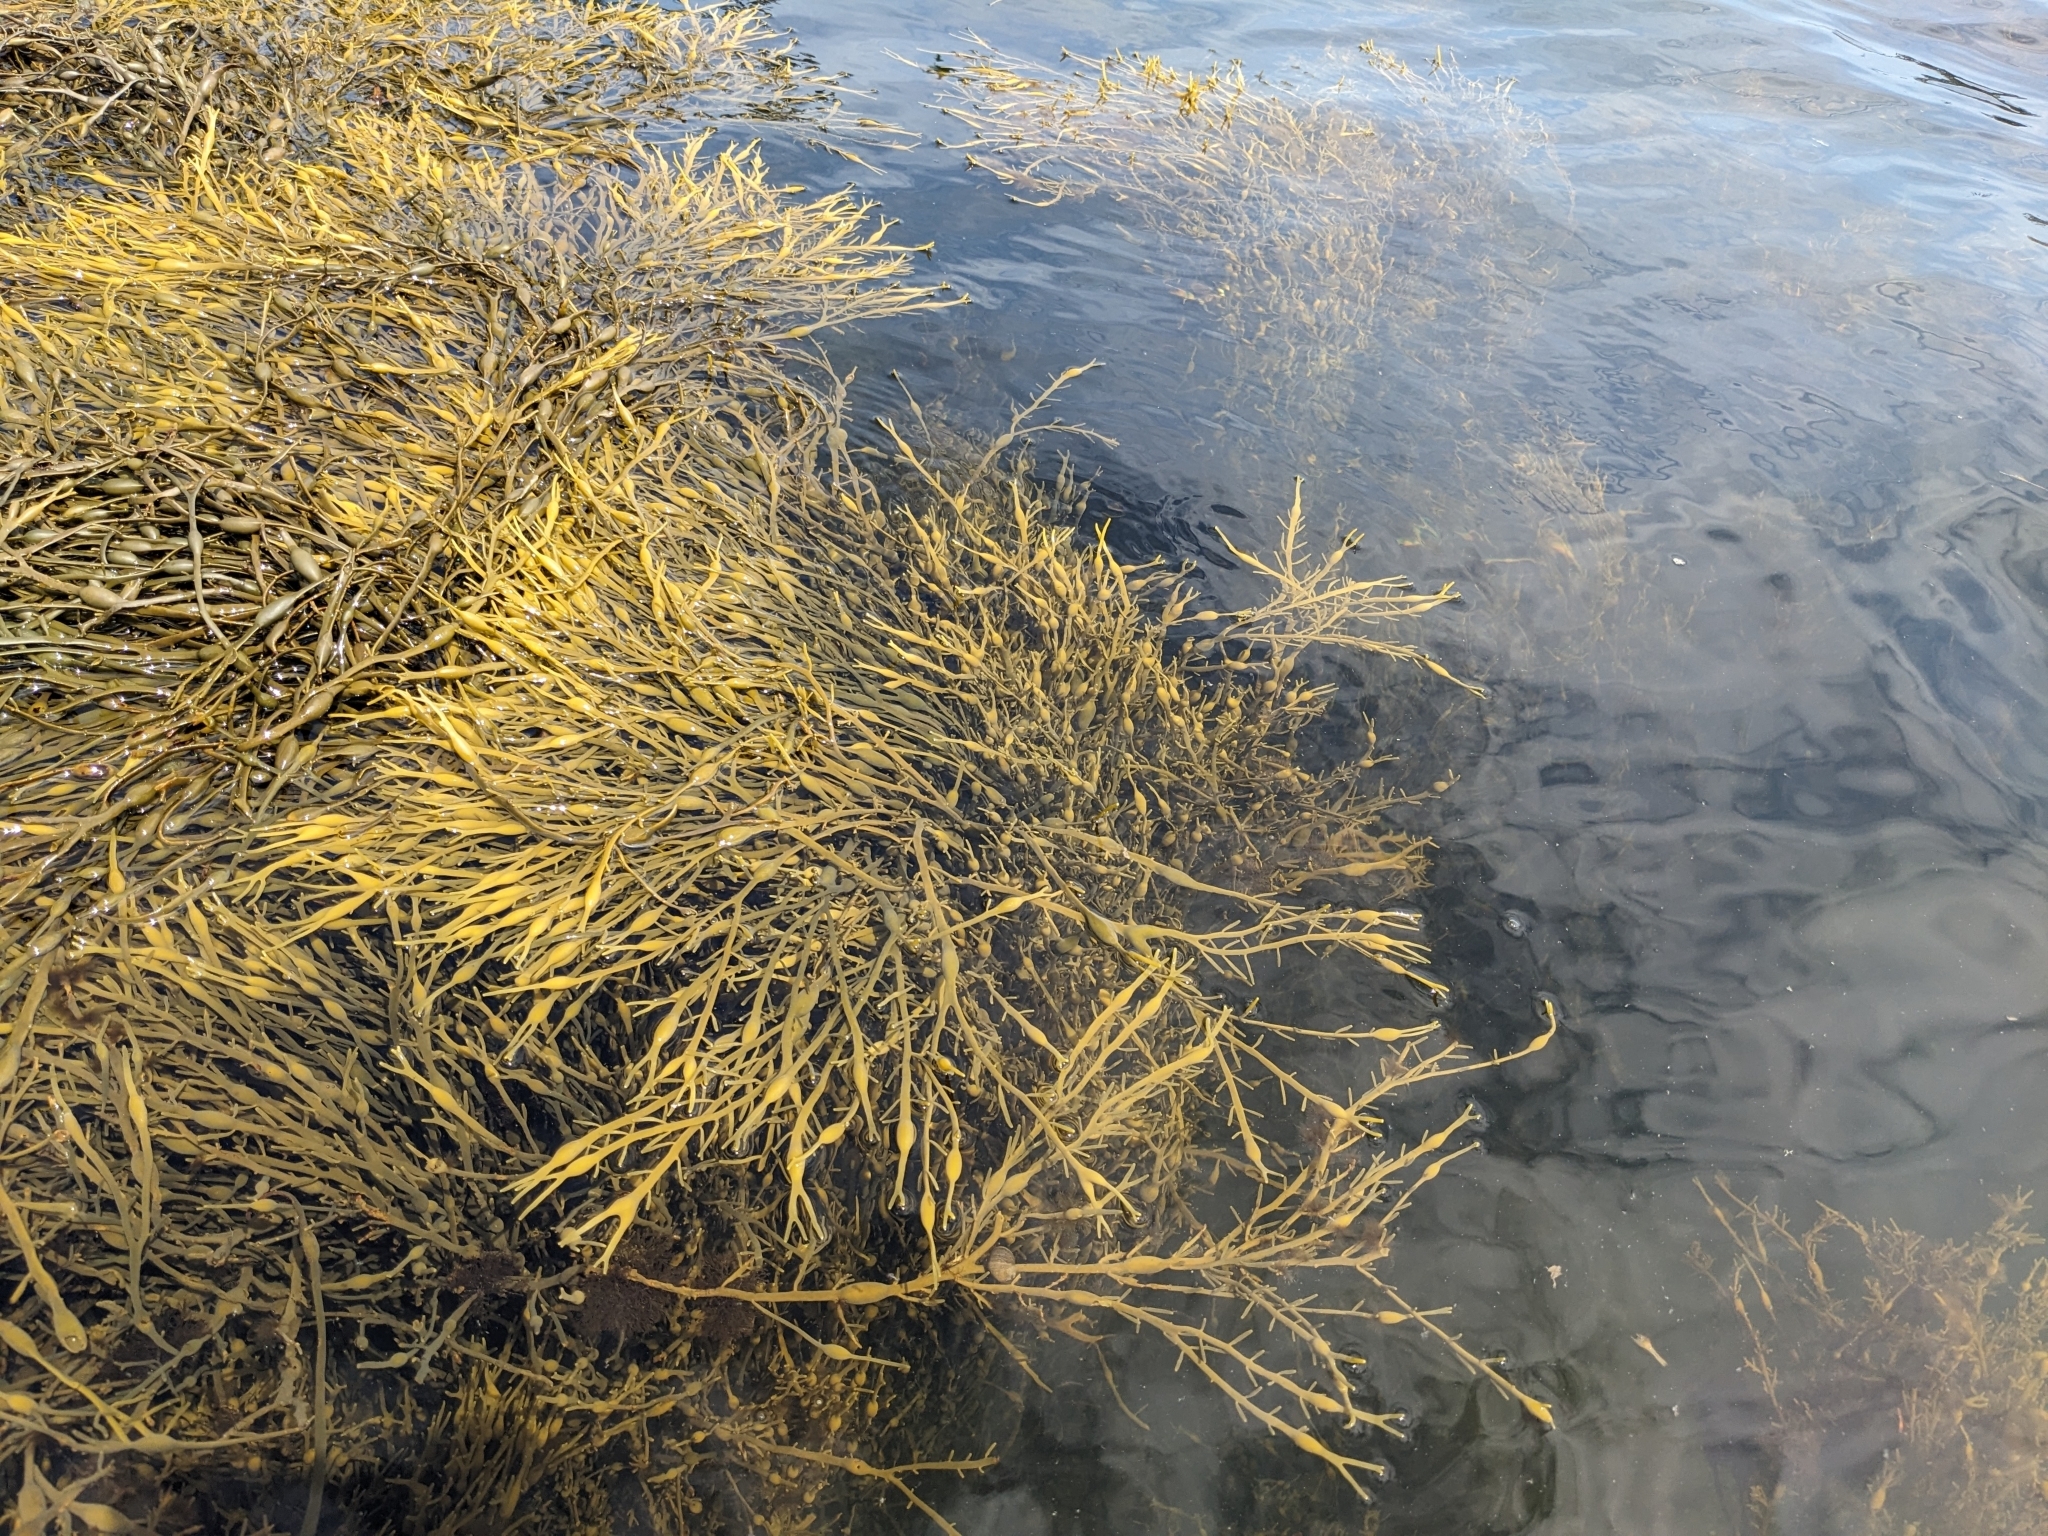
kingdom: Chromista
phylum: Ochrophyta
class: Phaeophyceae
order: Fucales
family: Fucaceae
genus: Ascophyllum
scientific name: Ascophyllum nodosum
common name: Knotted wrack
